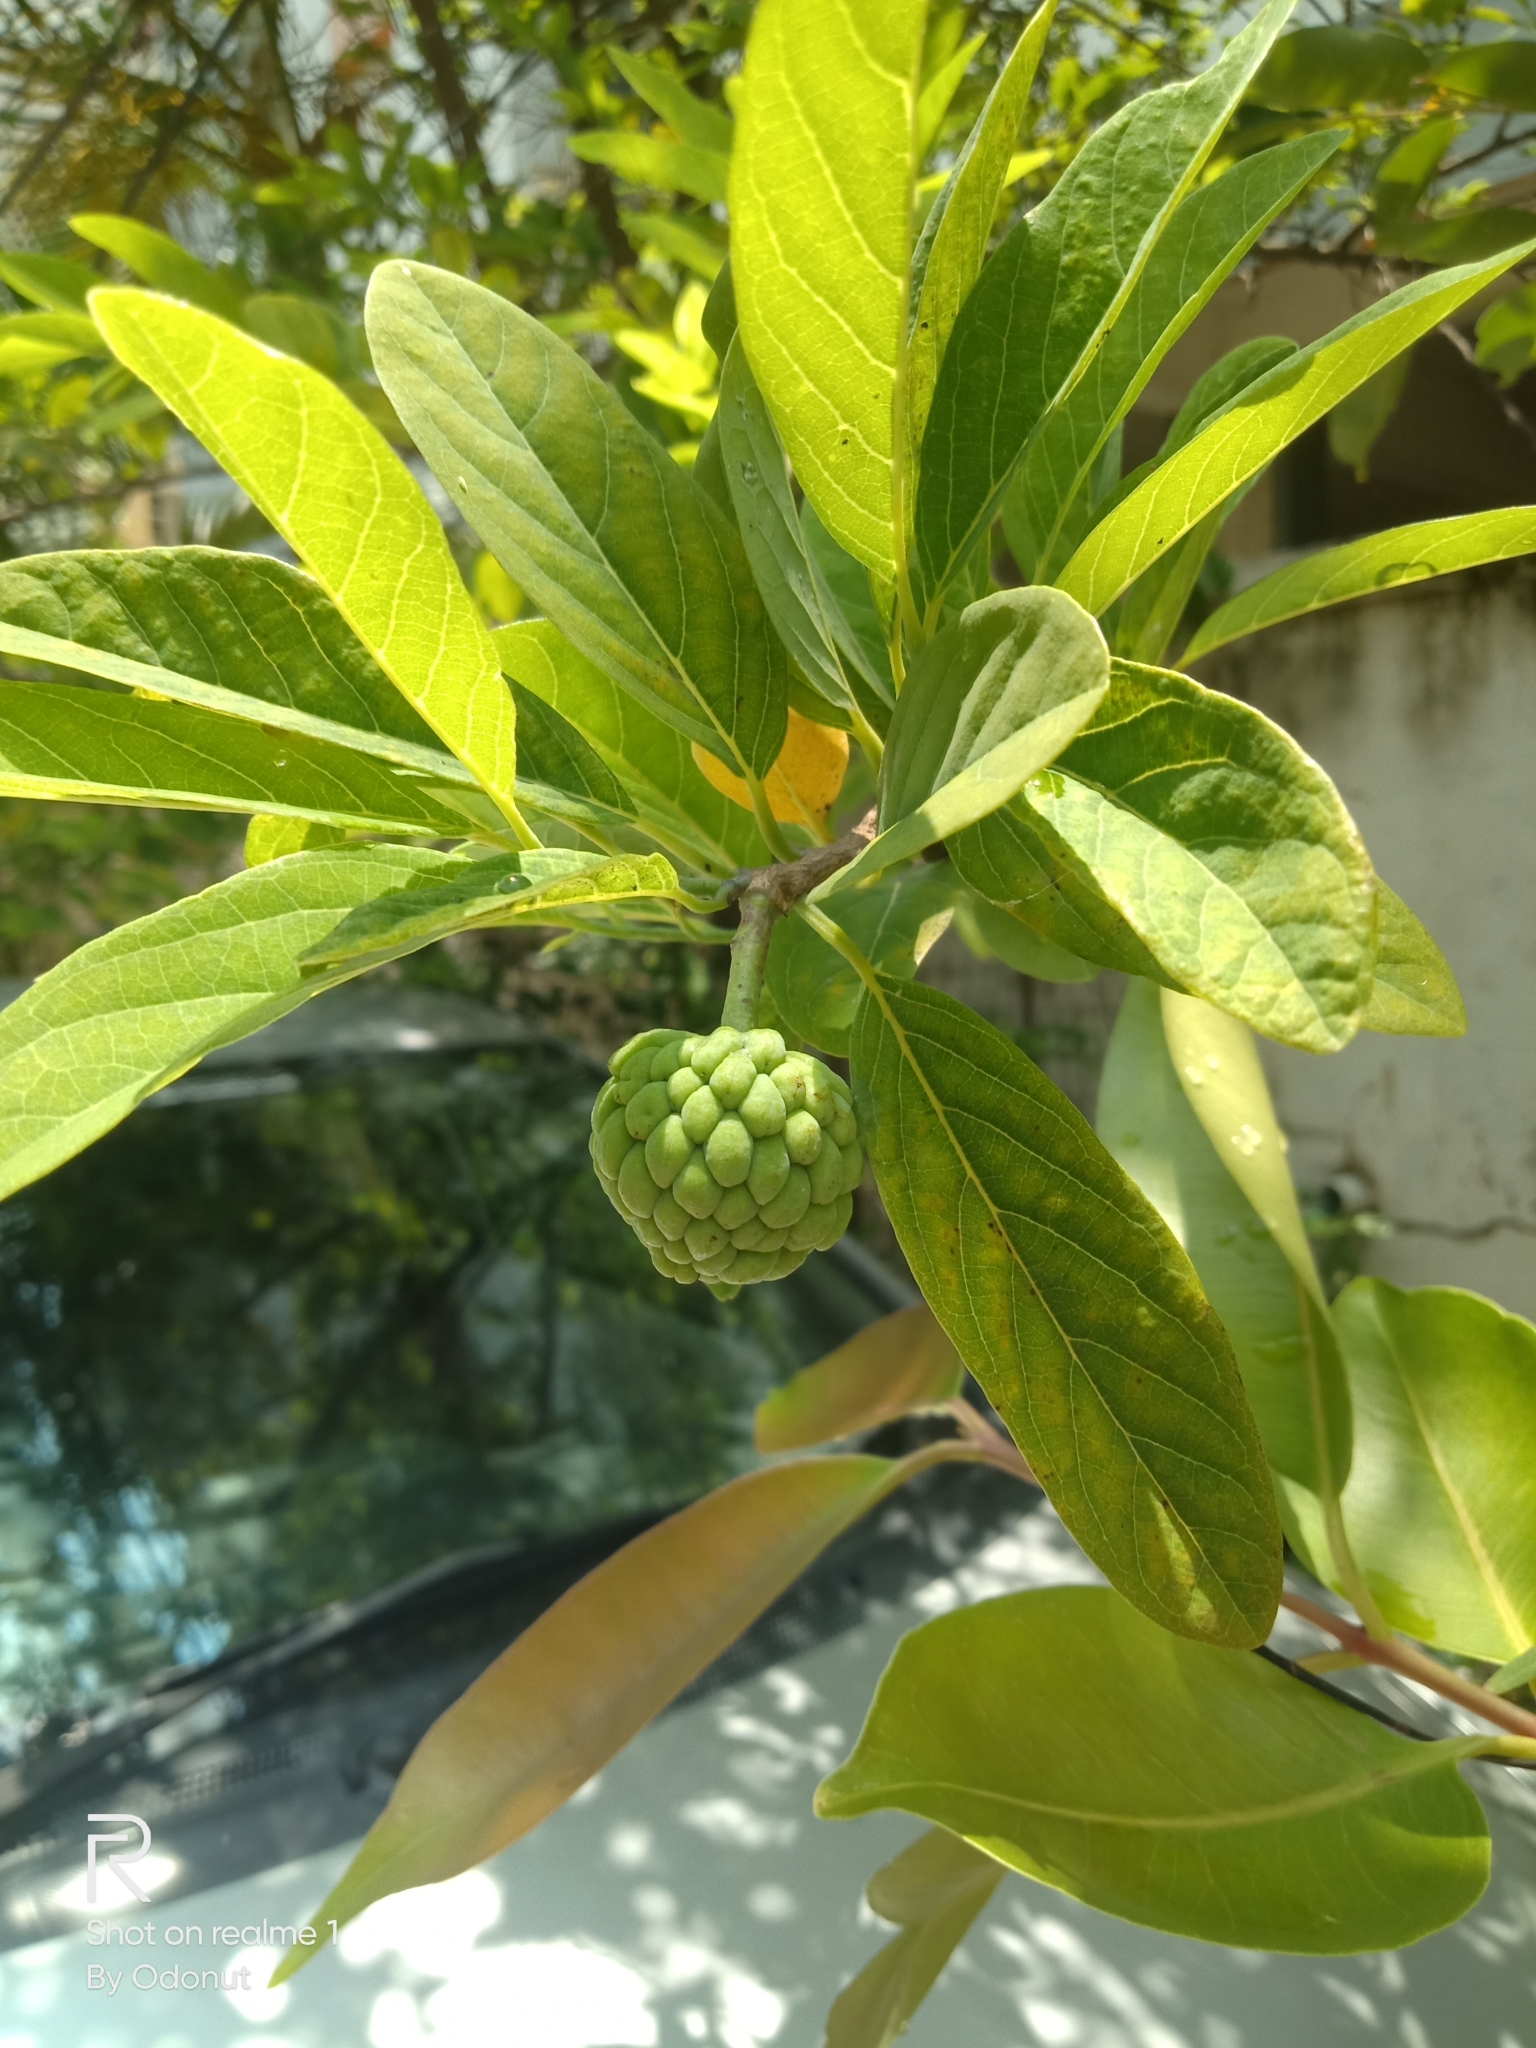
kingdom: Plantae
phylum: Tracheophyta
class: Magnoliopsida
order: Magnoliales
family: Annonaceae
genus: Annona
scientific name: Annona squamosa
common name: Custard-apple
